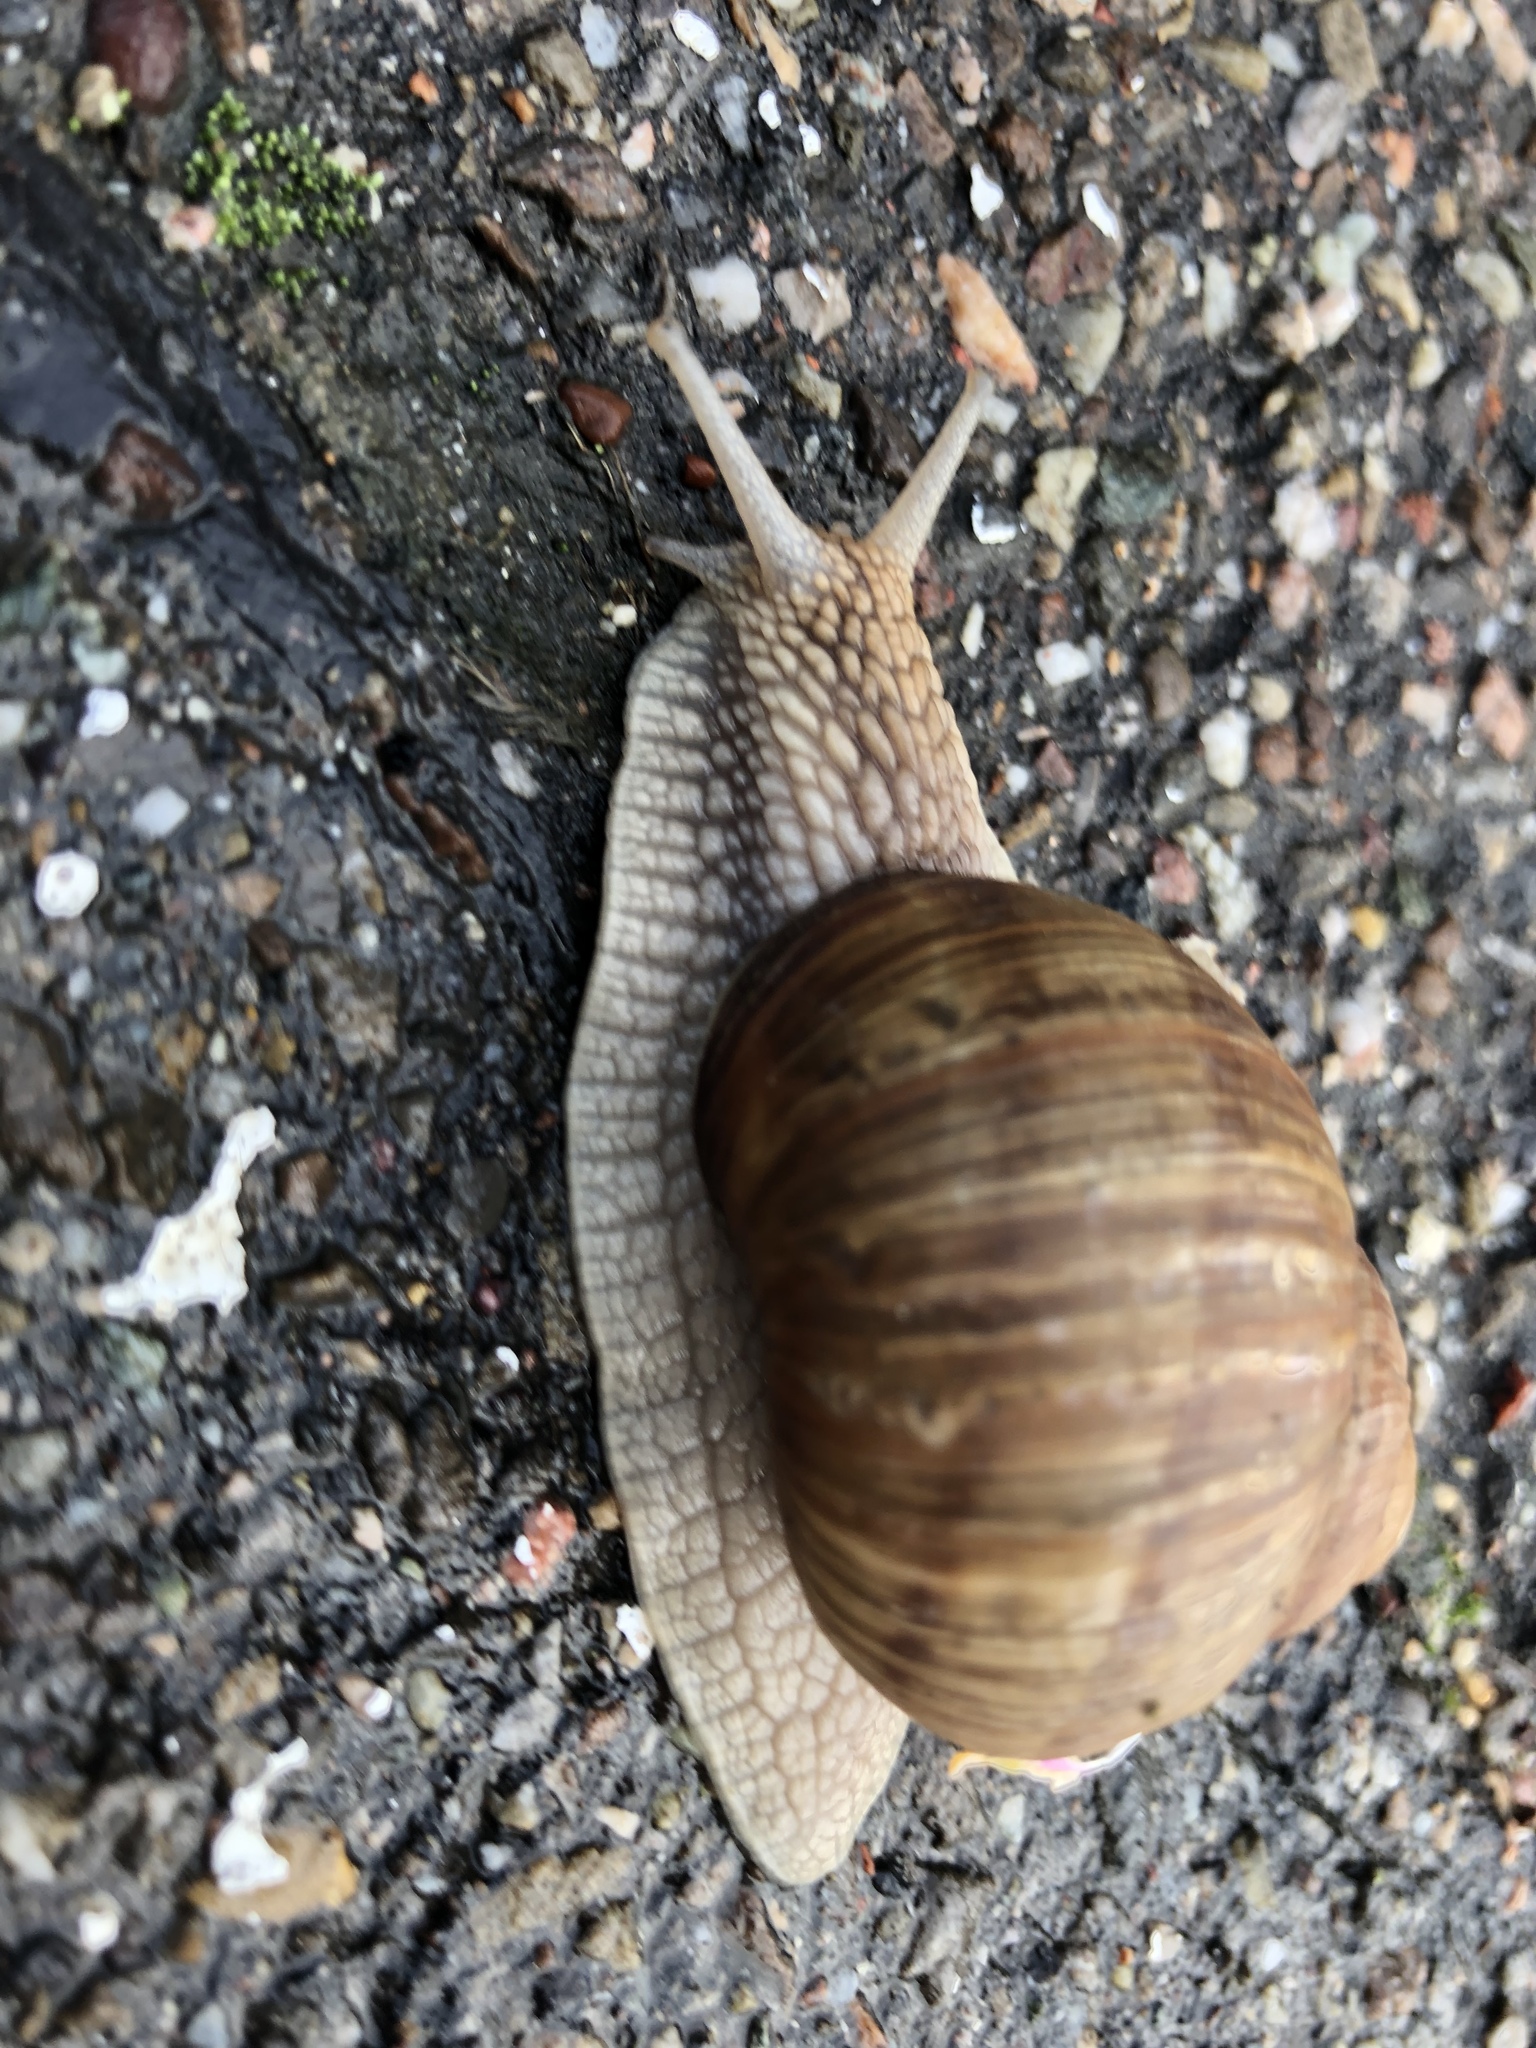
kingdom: Animalia
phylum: Mollusca
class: Gastropoda
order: Stylommatophora
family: Helicidae
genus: Helix
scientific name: Helix pomatia
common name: Roman snail
